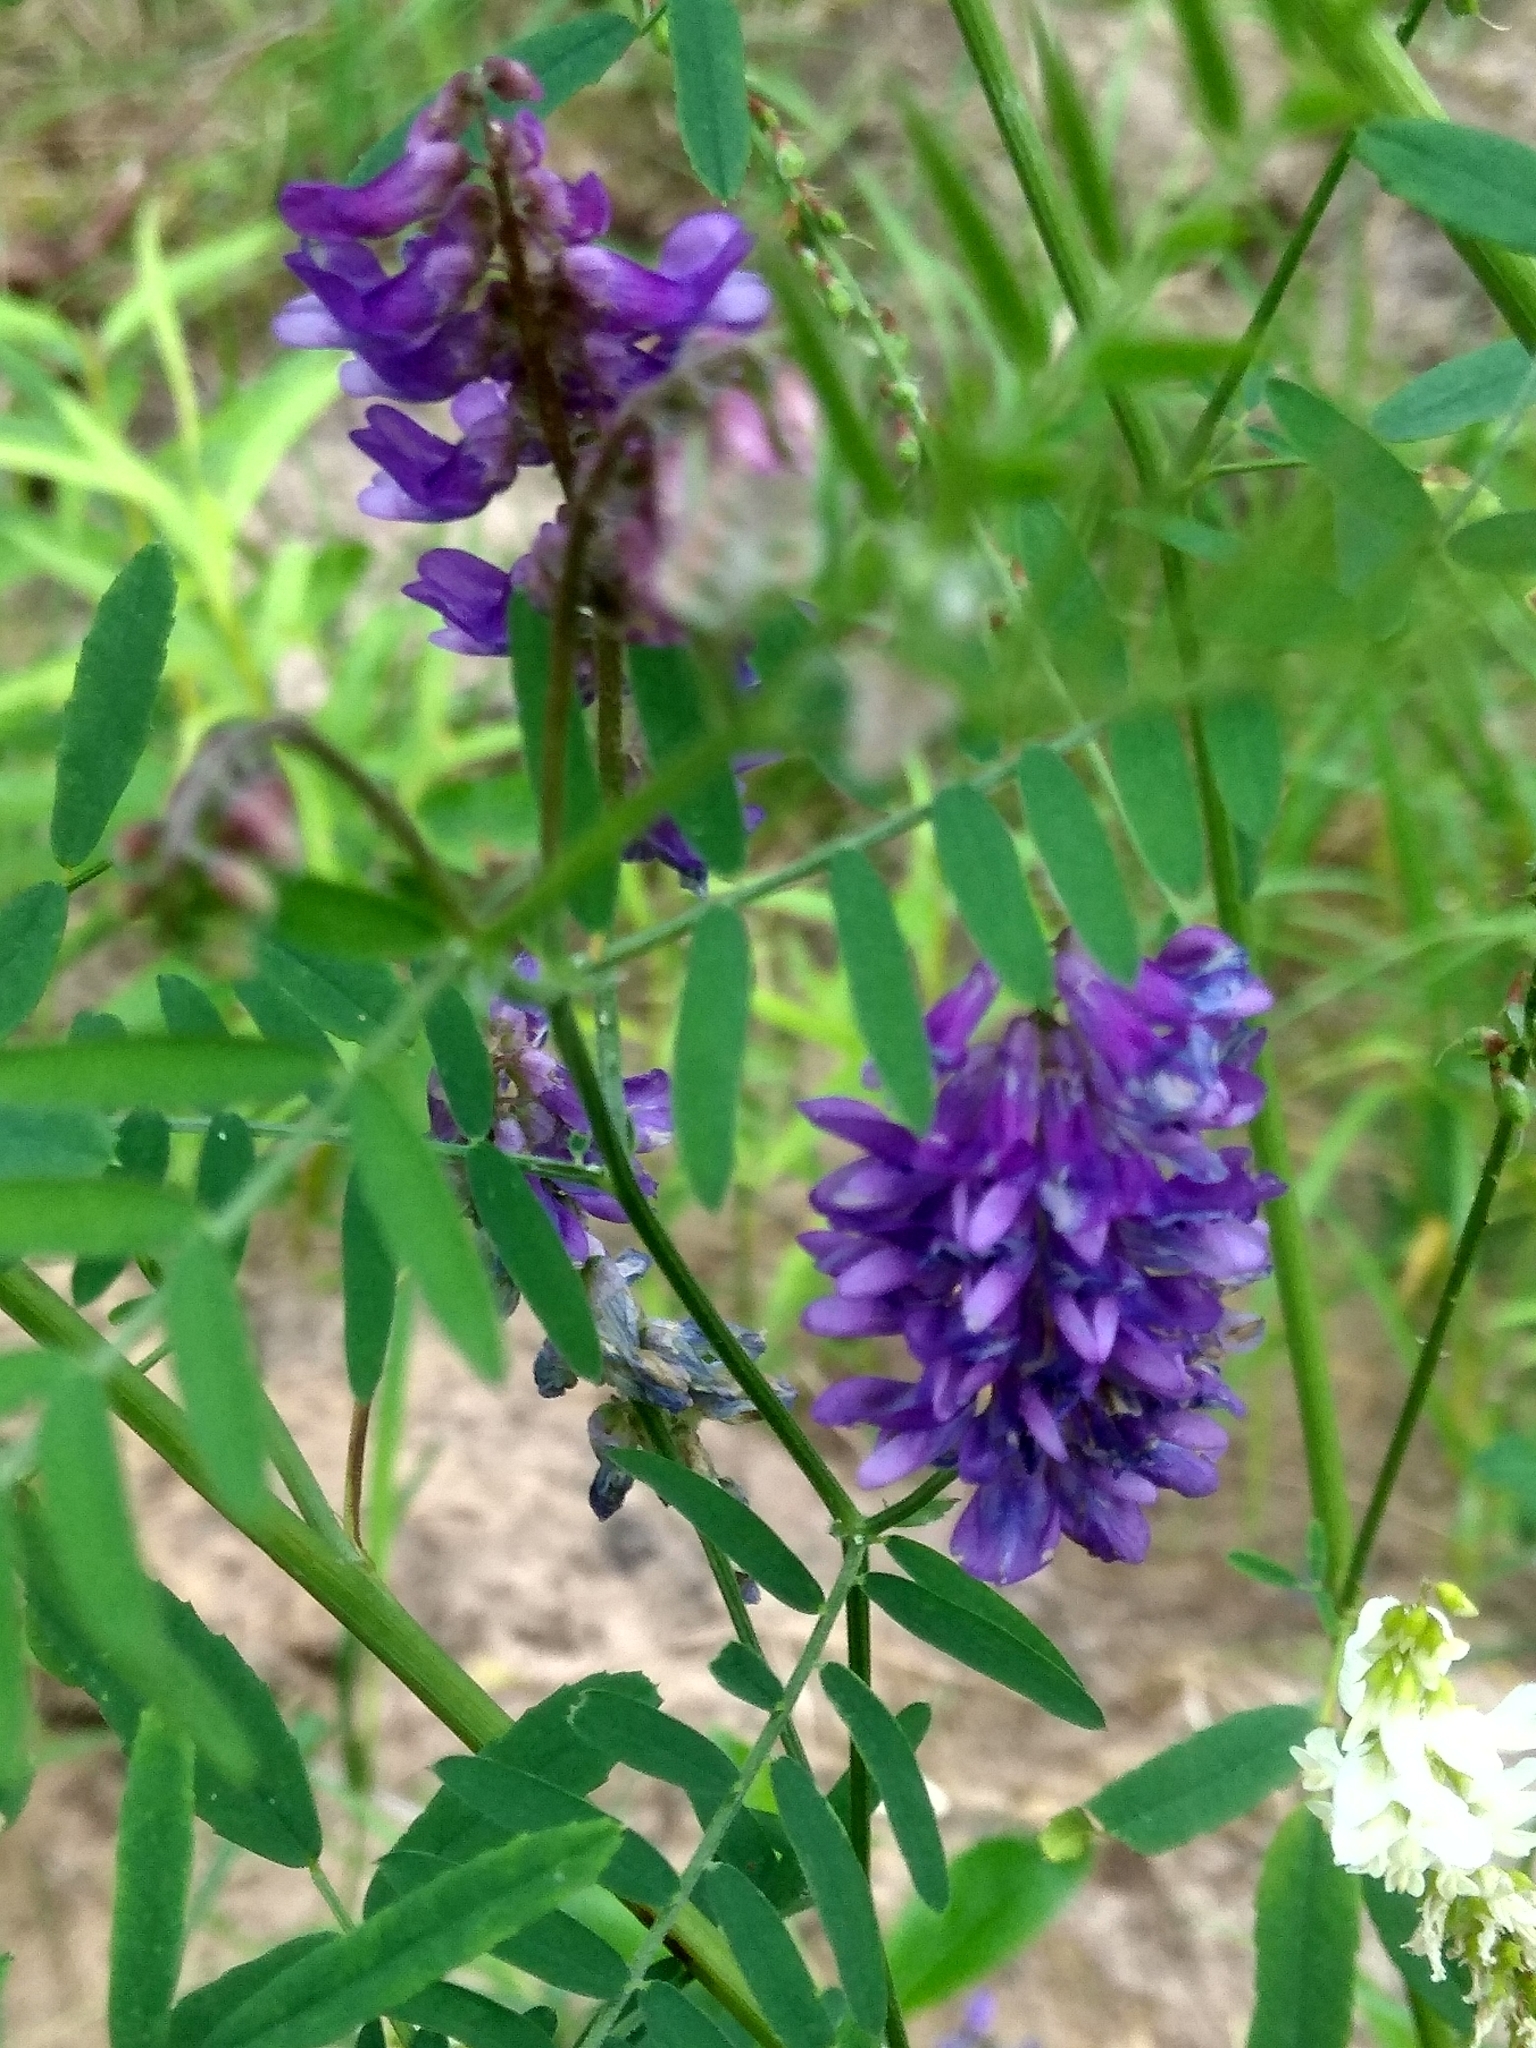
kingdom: Plantae
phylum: Tracheophyta
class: Magnoliopsida
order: Fabales
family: Fabaceae
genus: Vicia
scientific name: Vicia cracca
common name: Bird vetch
